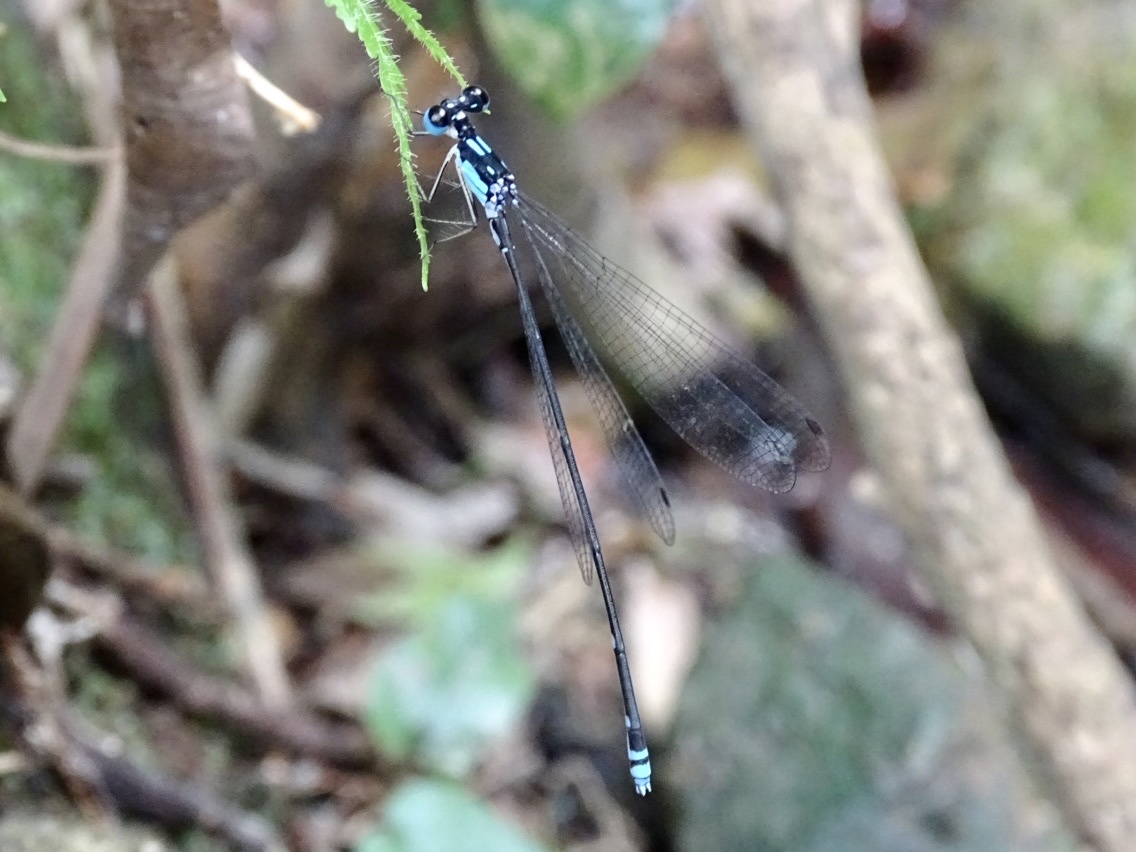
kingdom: Animalia
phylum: Arthropoda
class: Insecta
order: Odonata
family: Platycnemididae
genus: Coeliccia
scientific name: Coeliccia cyanomelas
